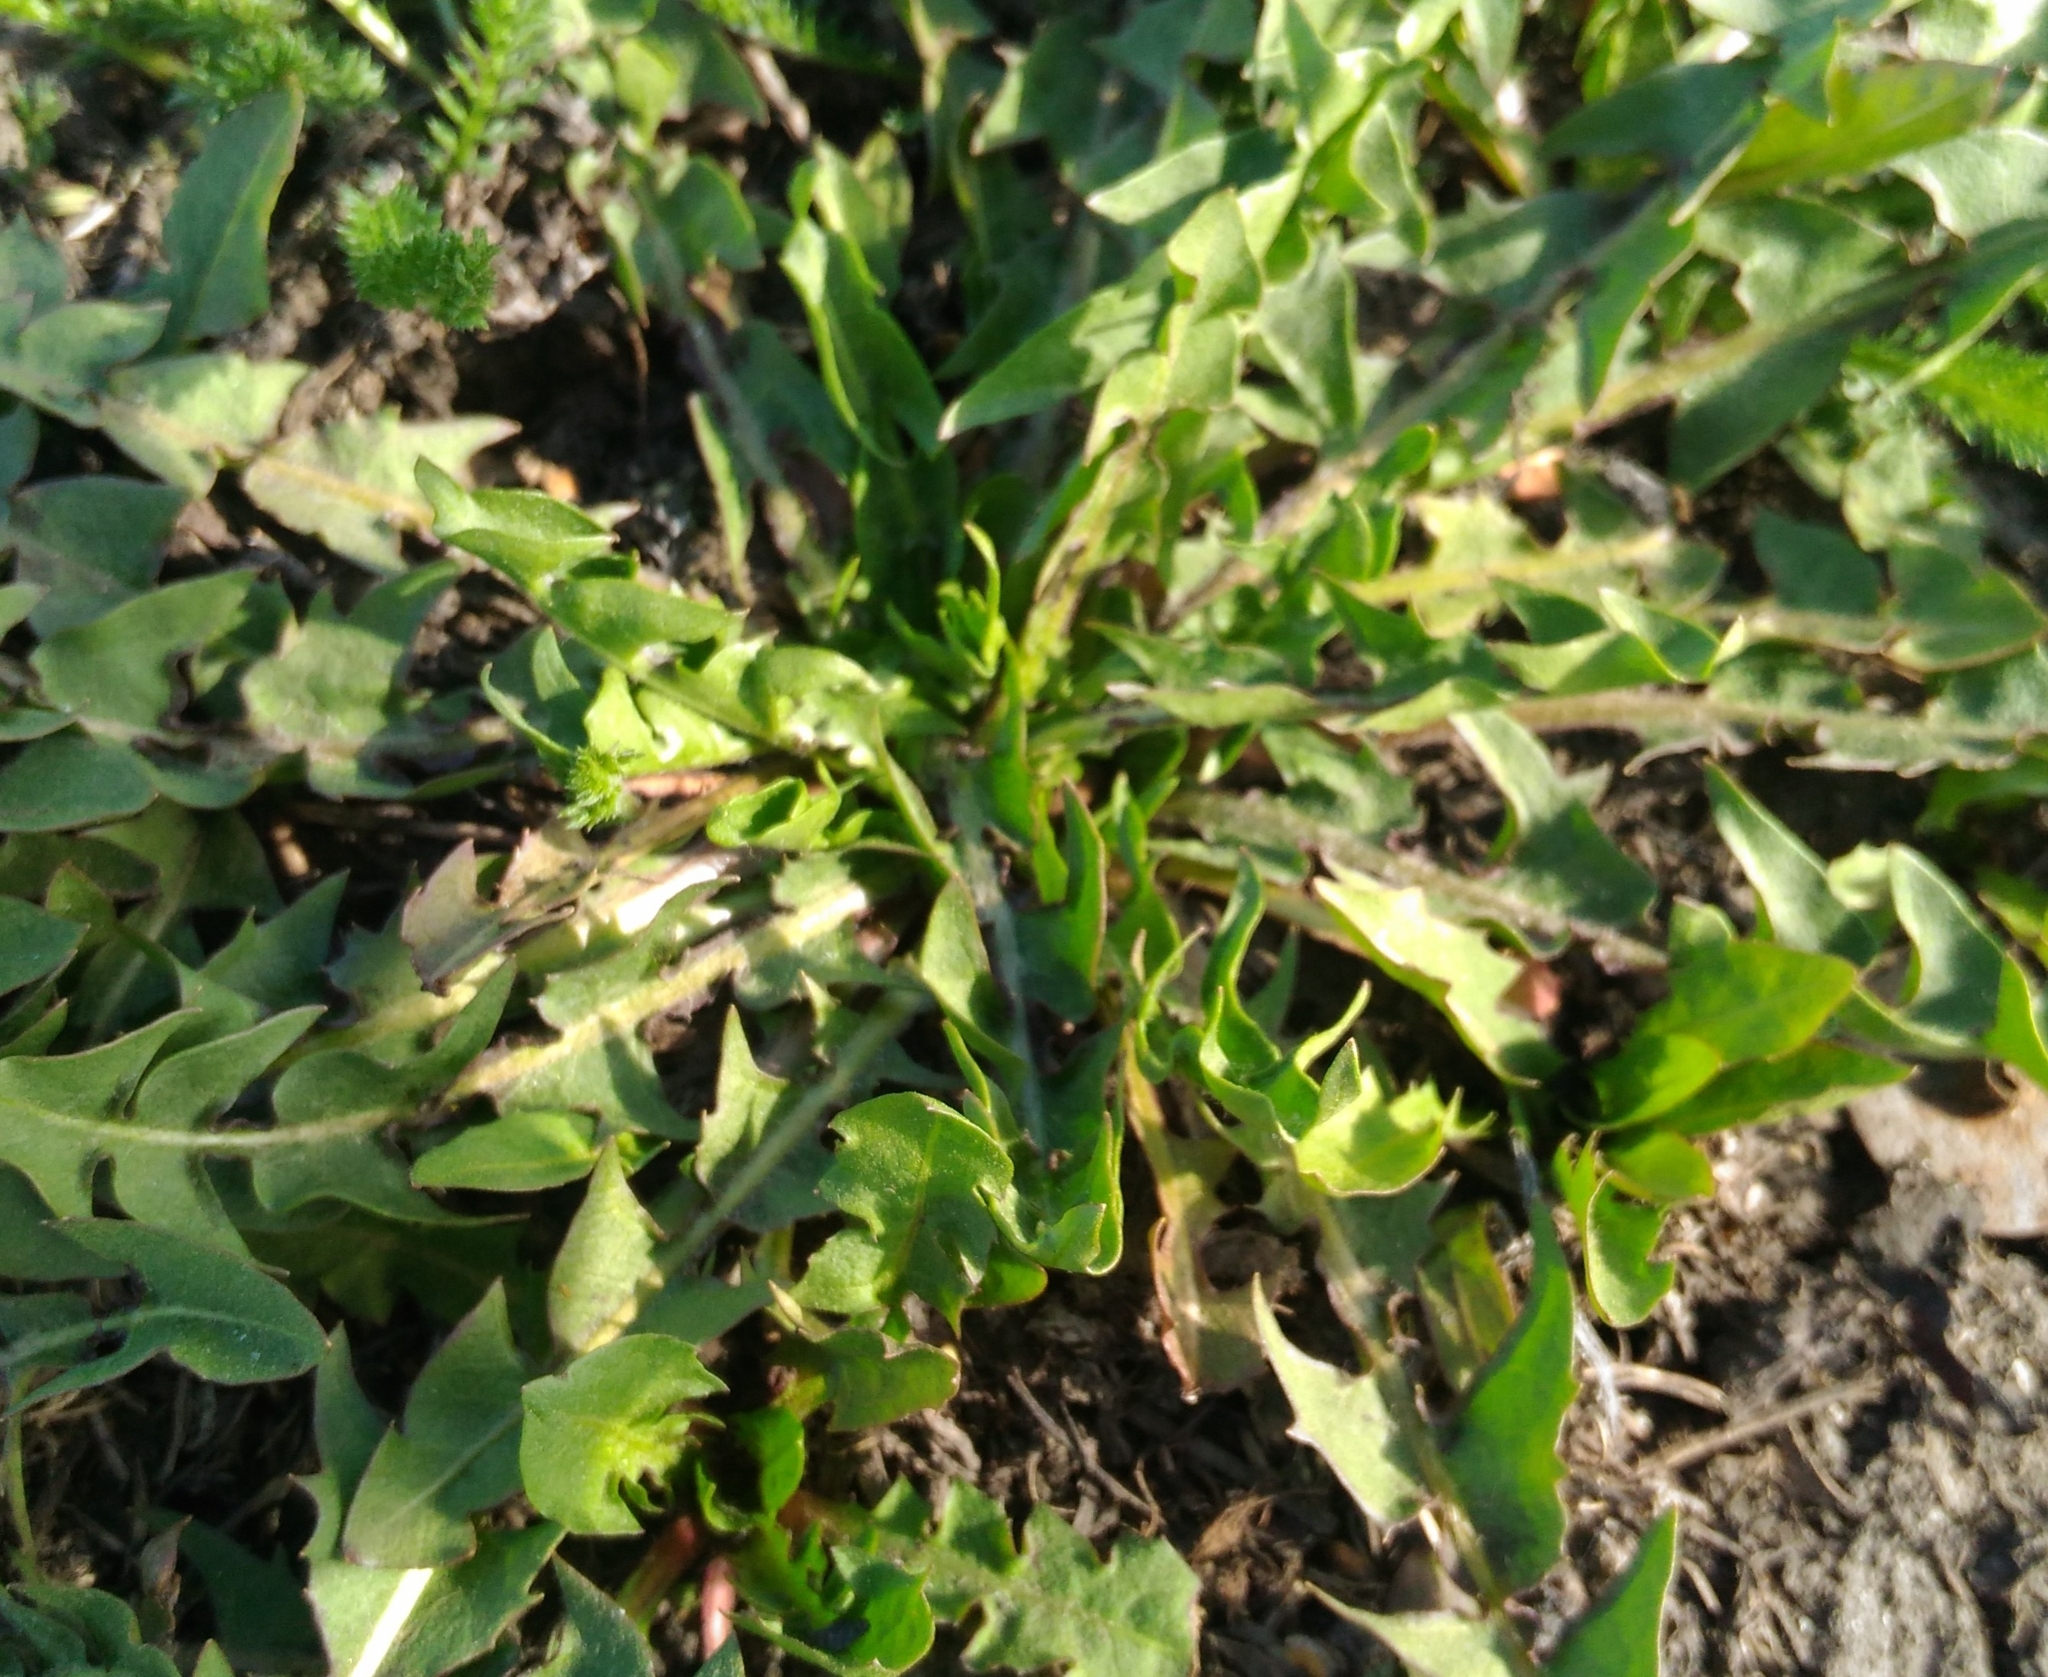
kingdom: Plantae
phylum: Tracheophyta
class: Magnoliopsida
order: Asterales
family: Asteraceae
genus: Taraxacum
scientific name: Taraxacum officinale
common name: Common dandelion
